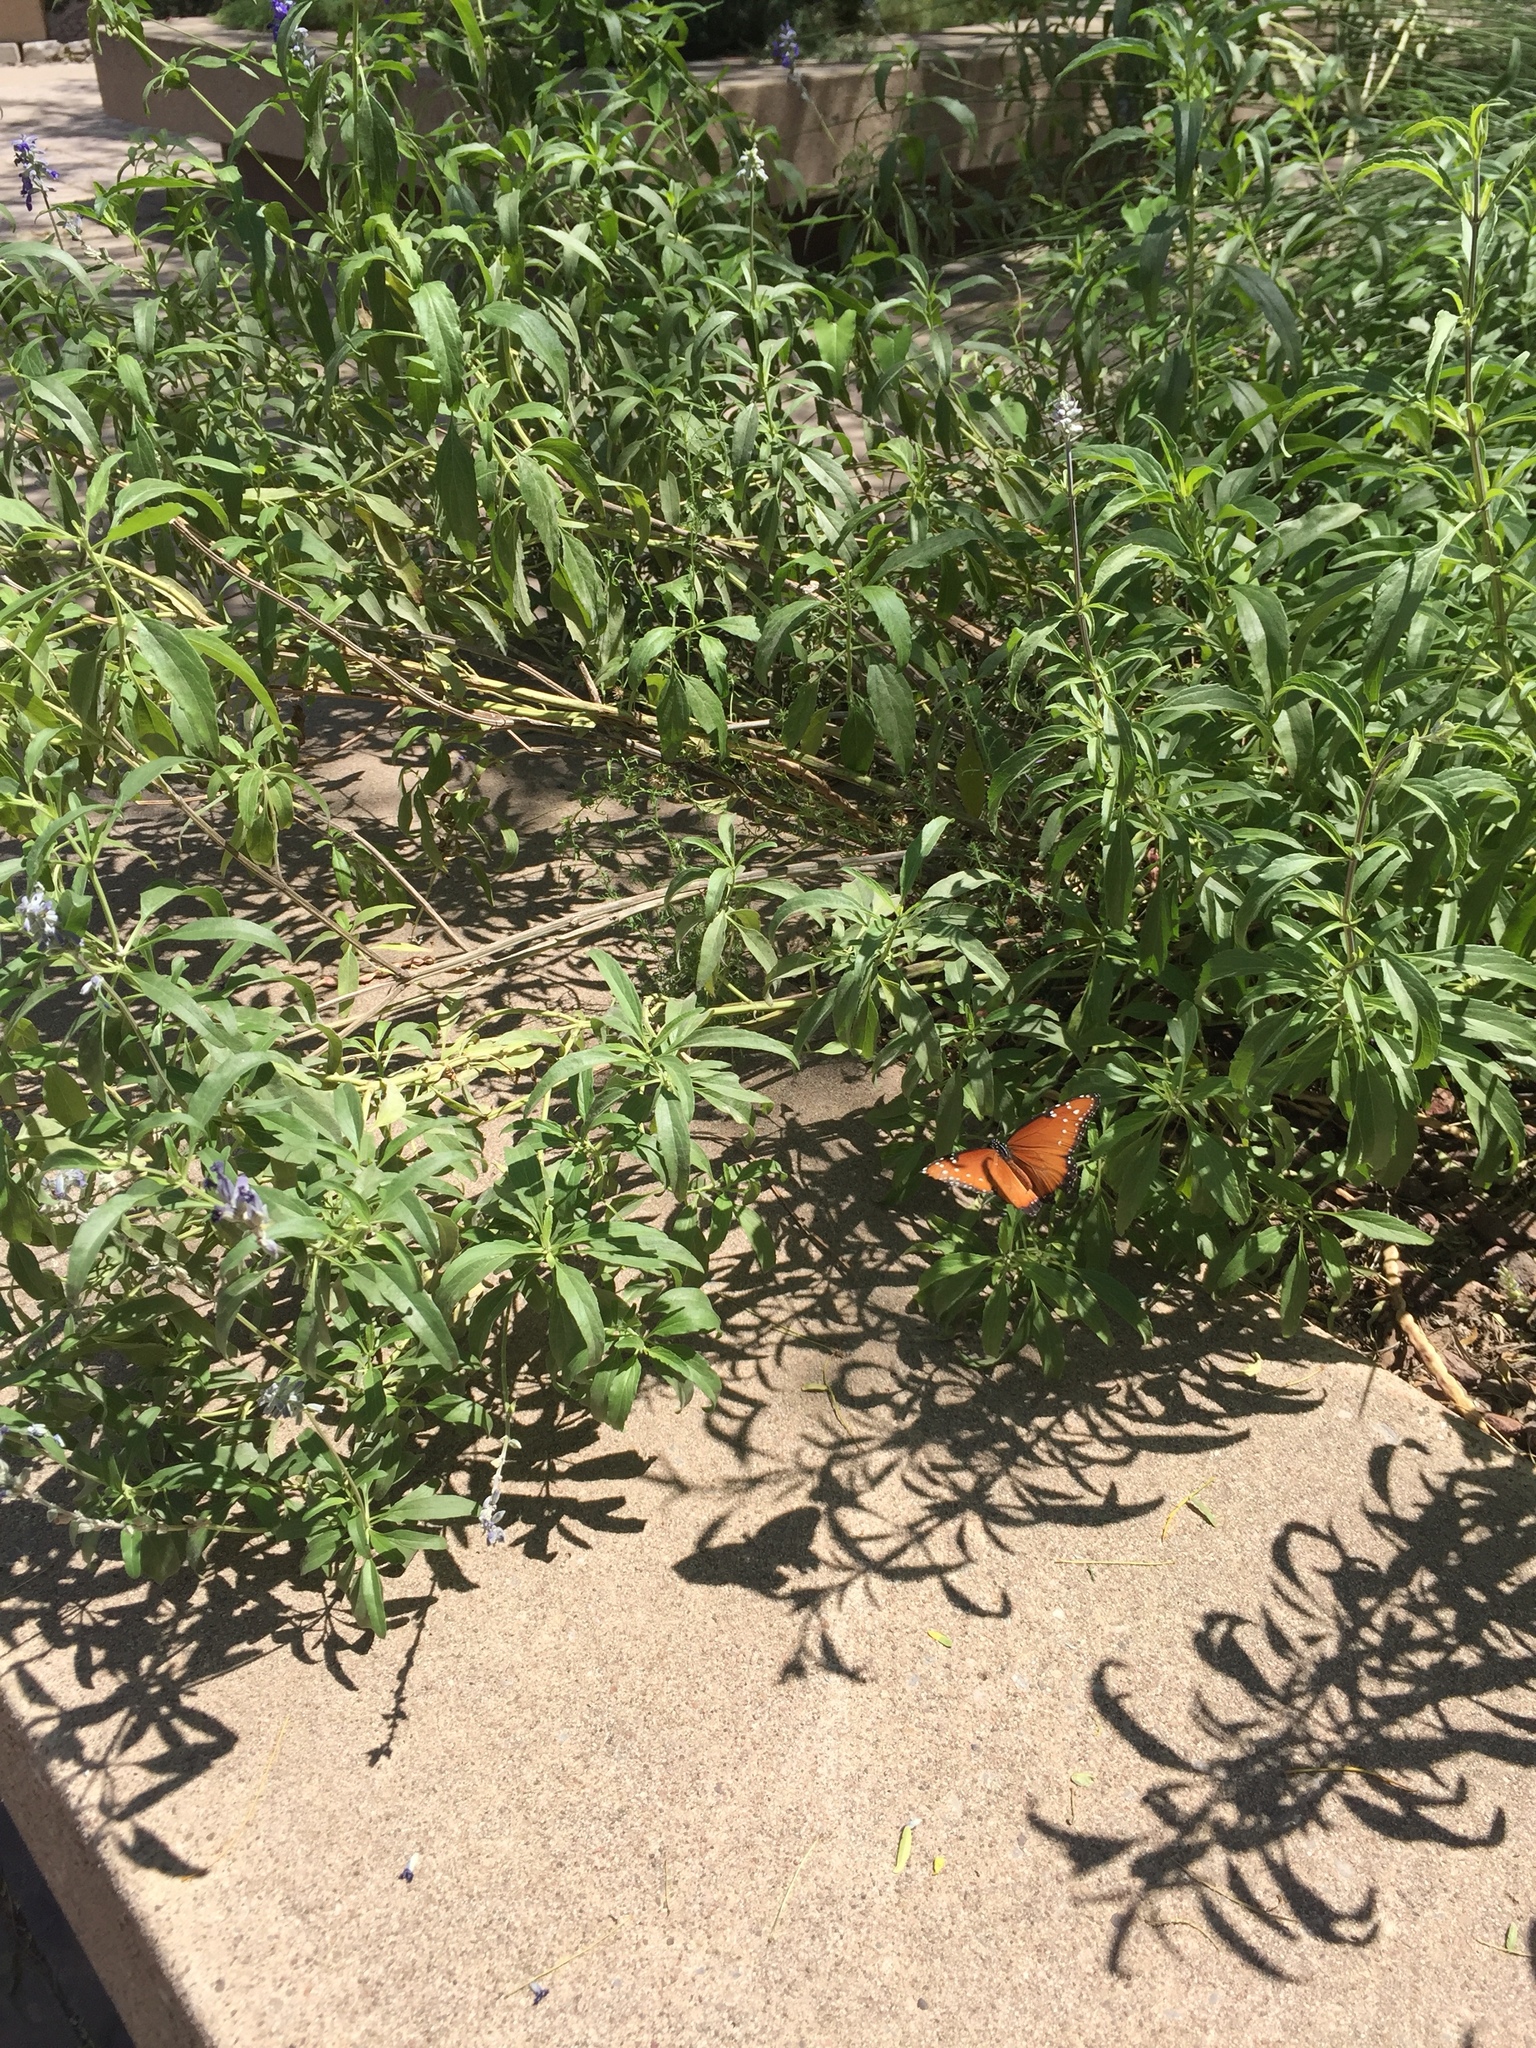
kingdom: Animalia
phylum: Arthropoda
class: Insecta
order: Lepidoptera
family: Nymphalidae
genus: Danaus
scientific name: Danaus gilippus
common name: Queen
